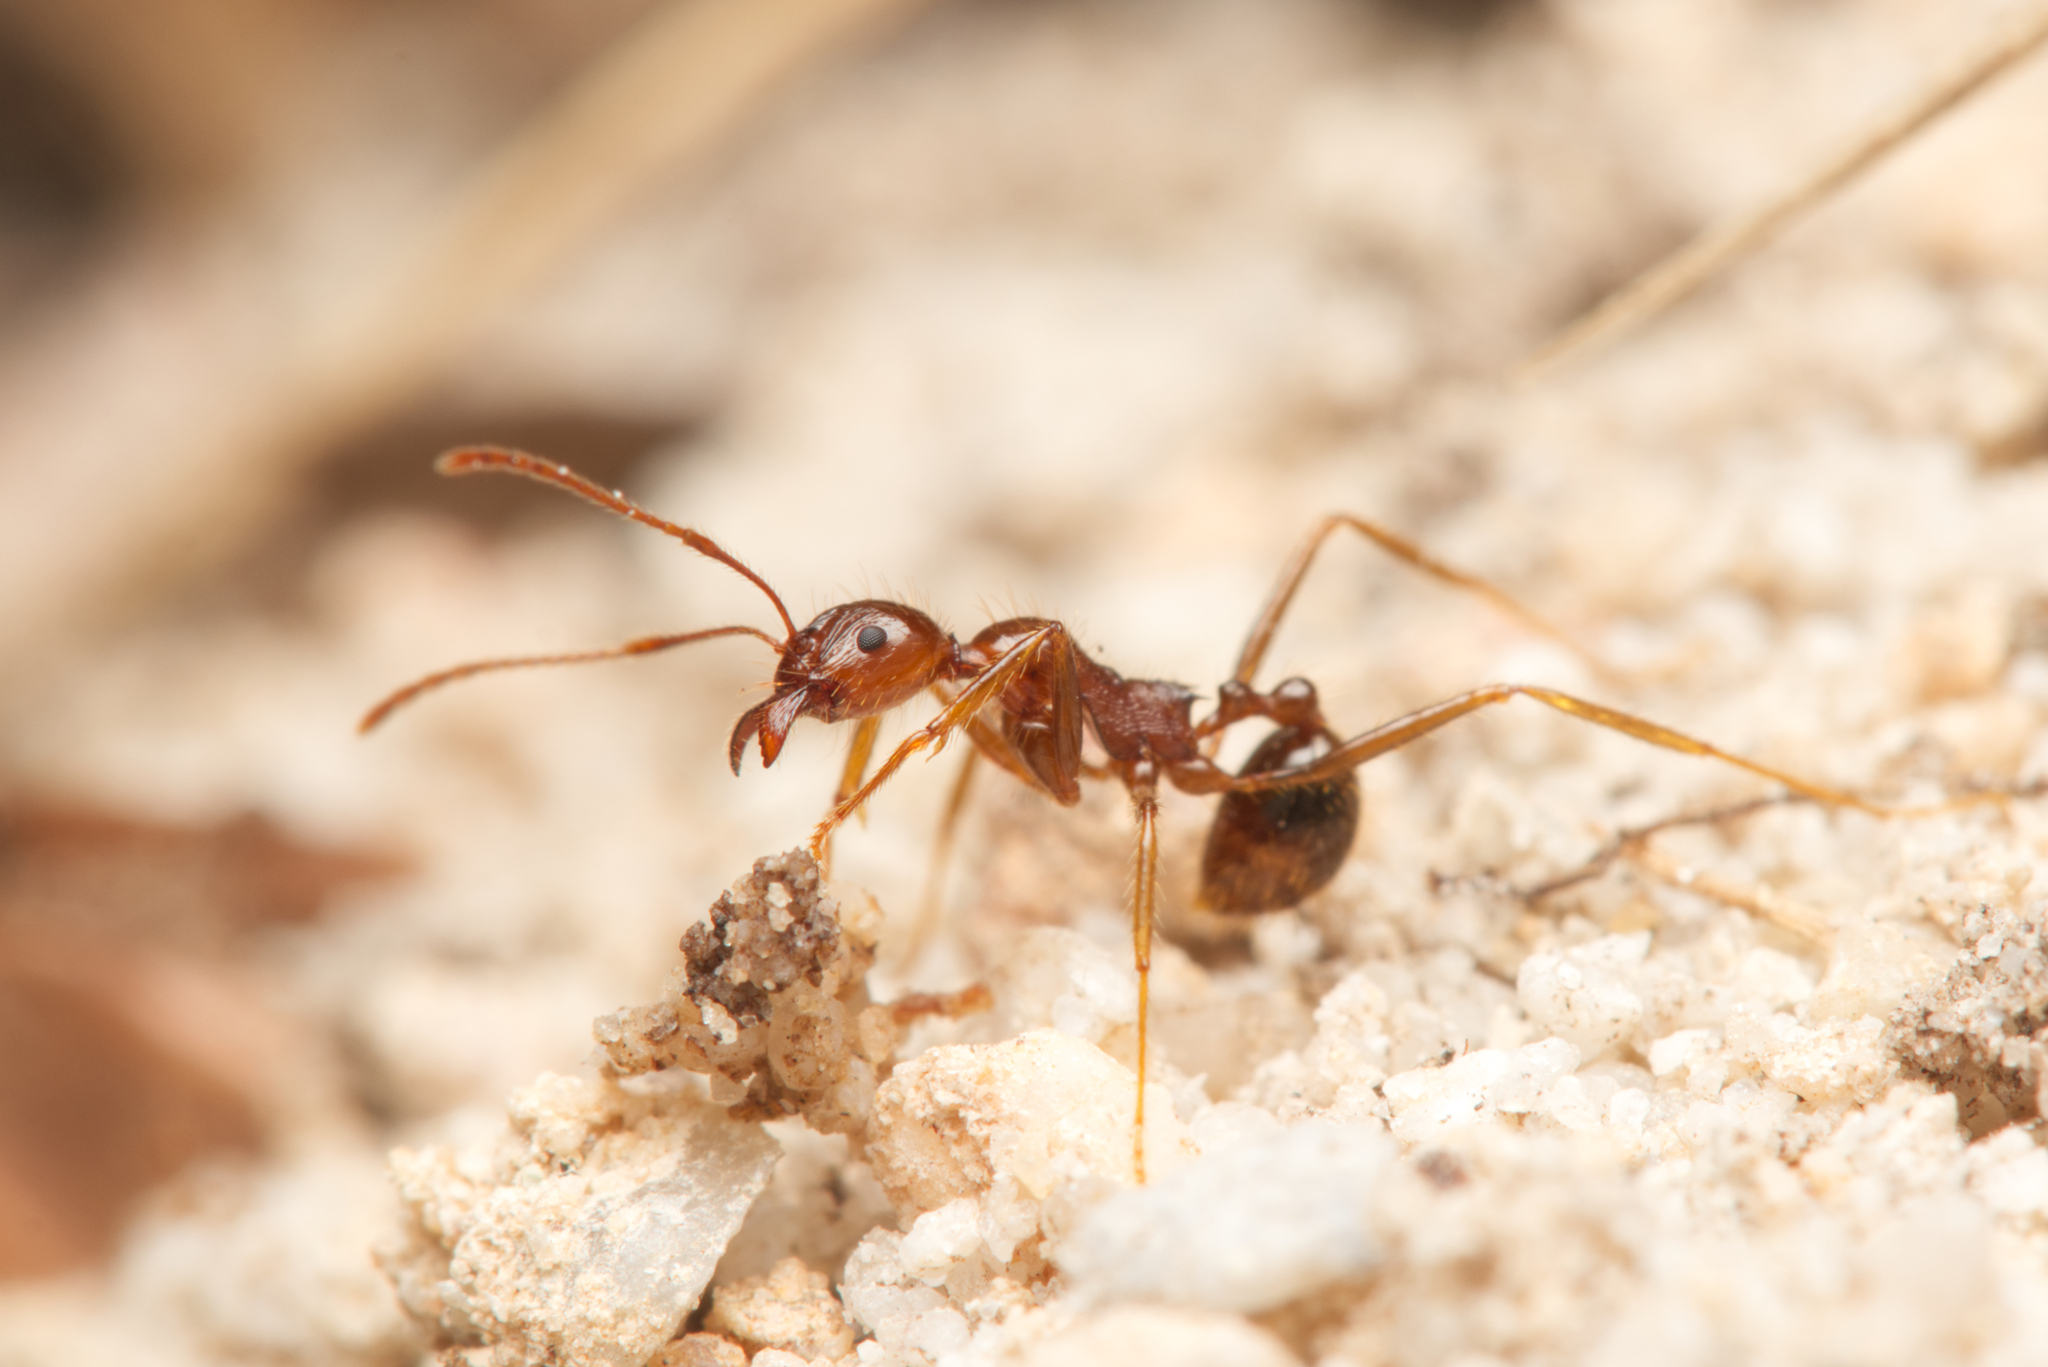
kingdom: Animalia
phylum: Arthropoda
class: Insecta
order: Hymenoptera
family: Formicidae
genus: Aphaenogaster
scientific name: Aphaenogaster longiceps
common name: Funnel ant
